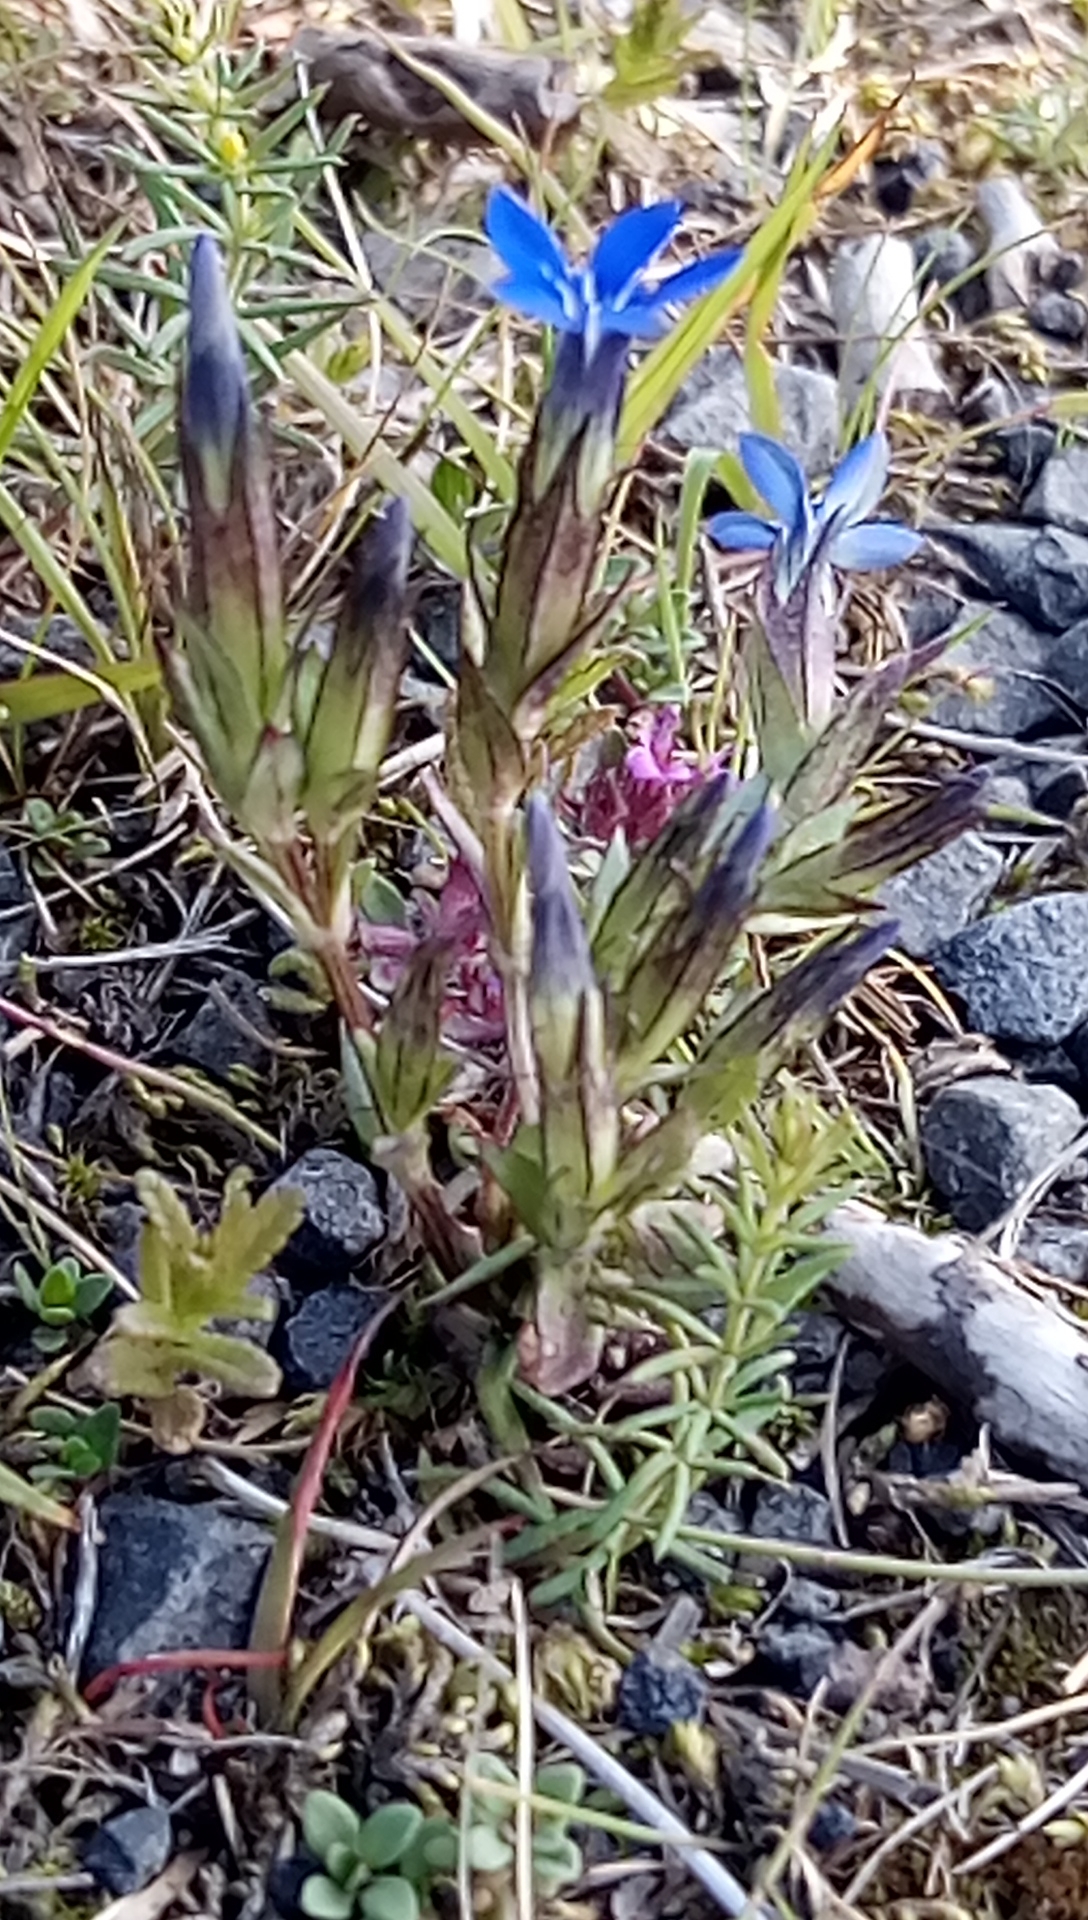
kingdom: Plantae
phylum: Tracheophyta
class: Magnoliopsida
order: Gentianales
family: Gentianaceae
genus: Gentiana
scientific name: Gentiana nivalis
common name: Alpine gentian
